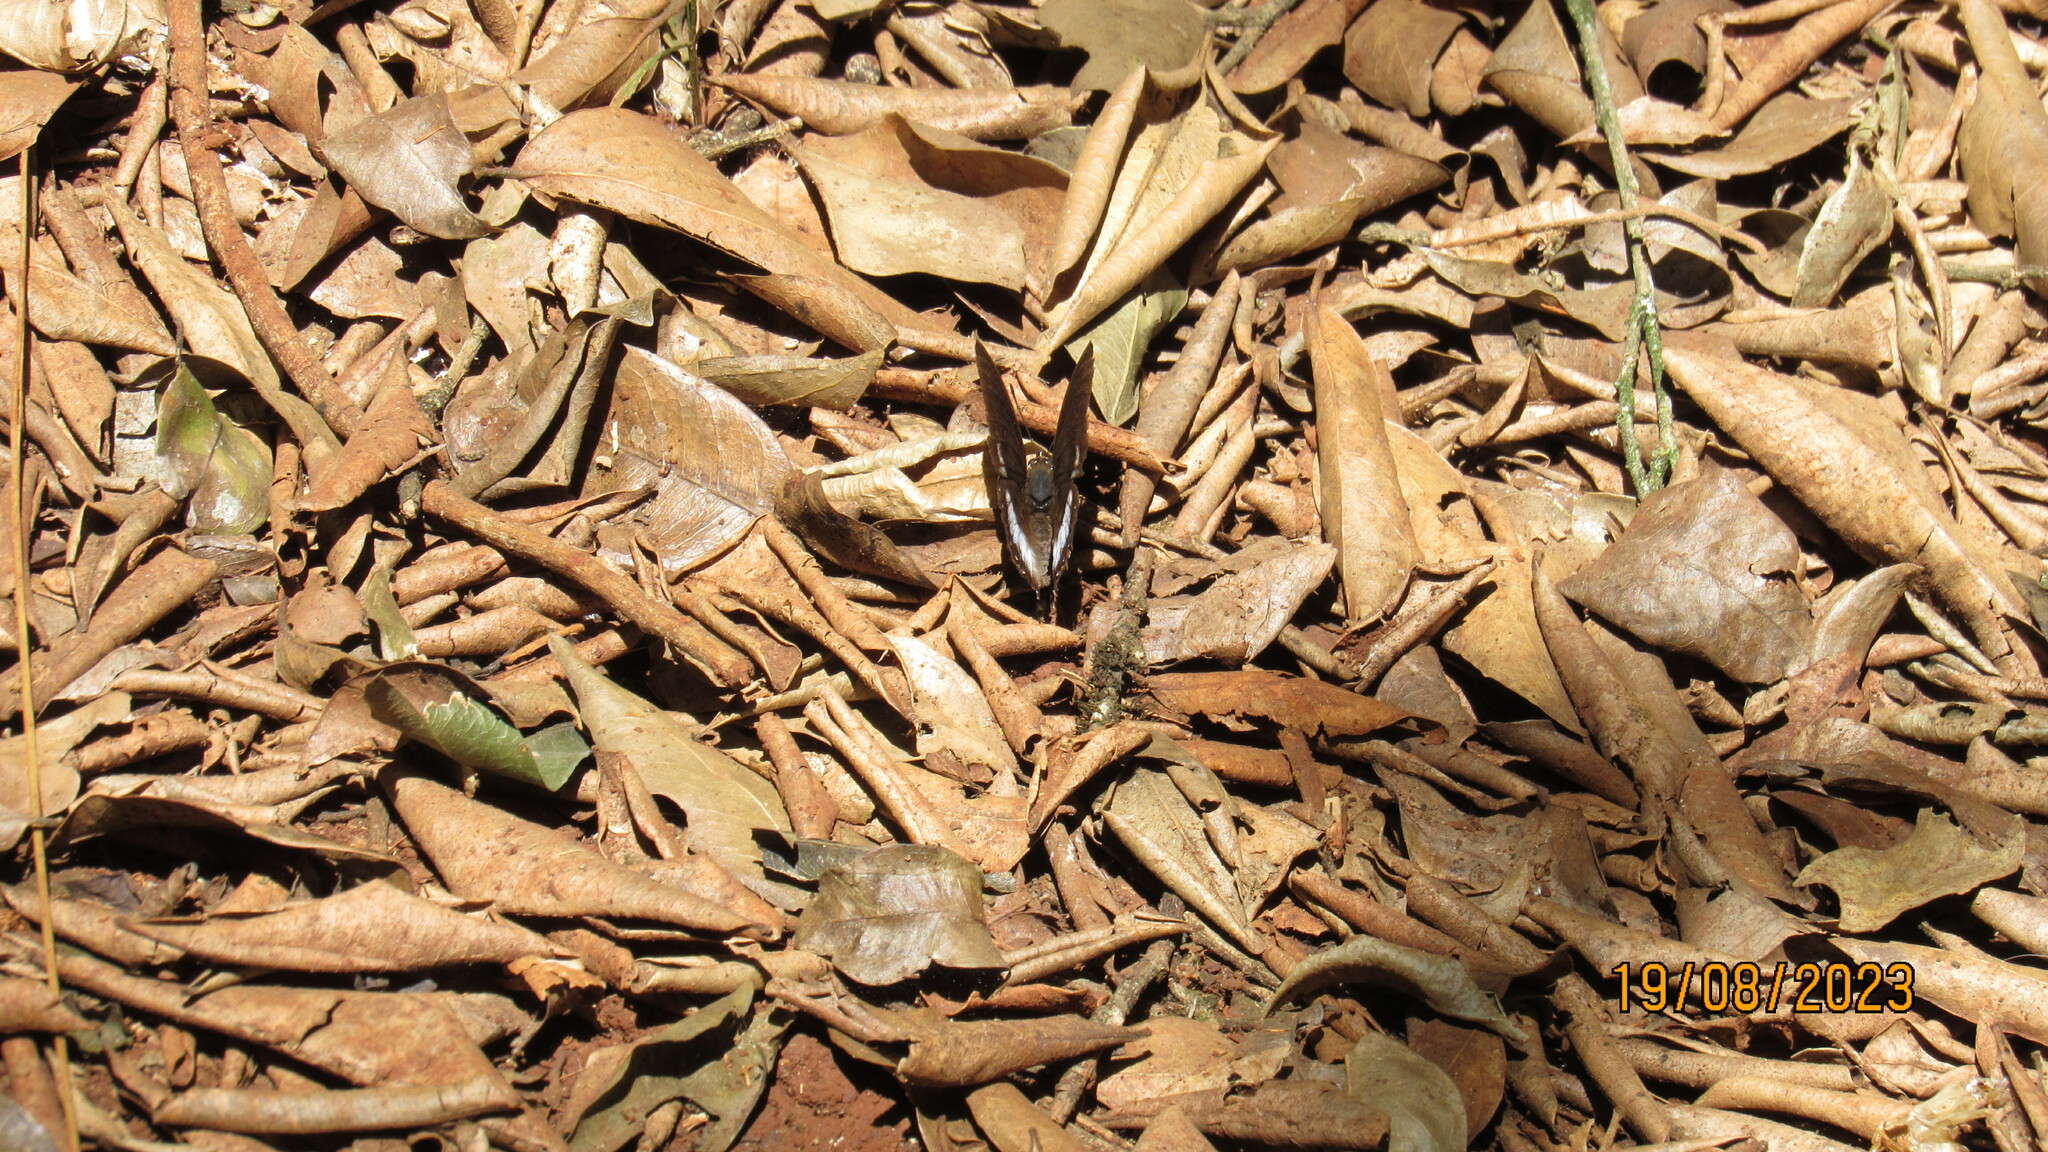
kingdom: Animalia
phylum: Arthropoda
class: Insecta
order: Lepidoptera
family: Nymphalidae
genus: Eurytela
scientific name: Eurytela hiarbas
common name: Pied piper
